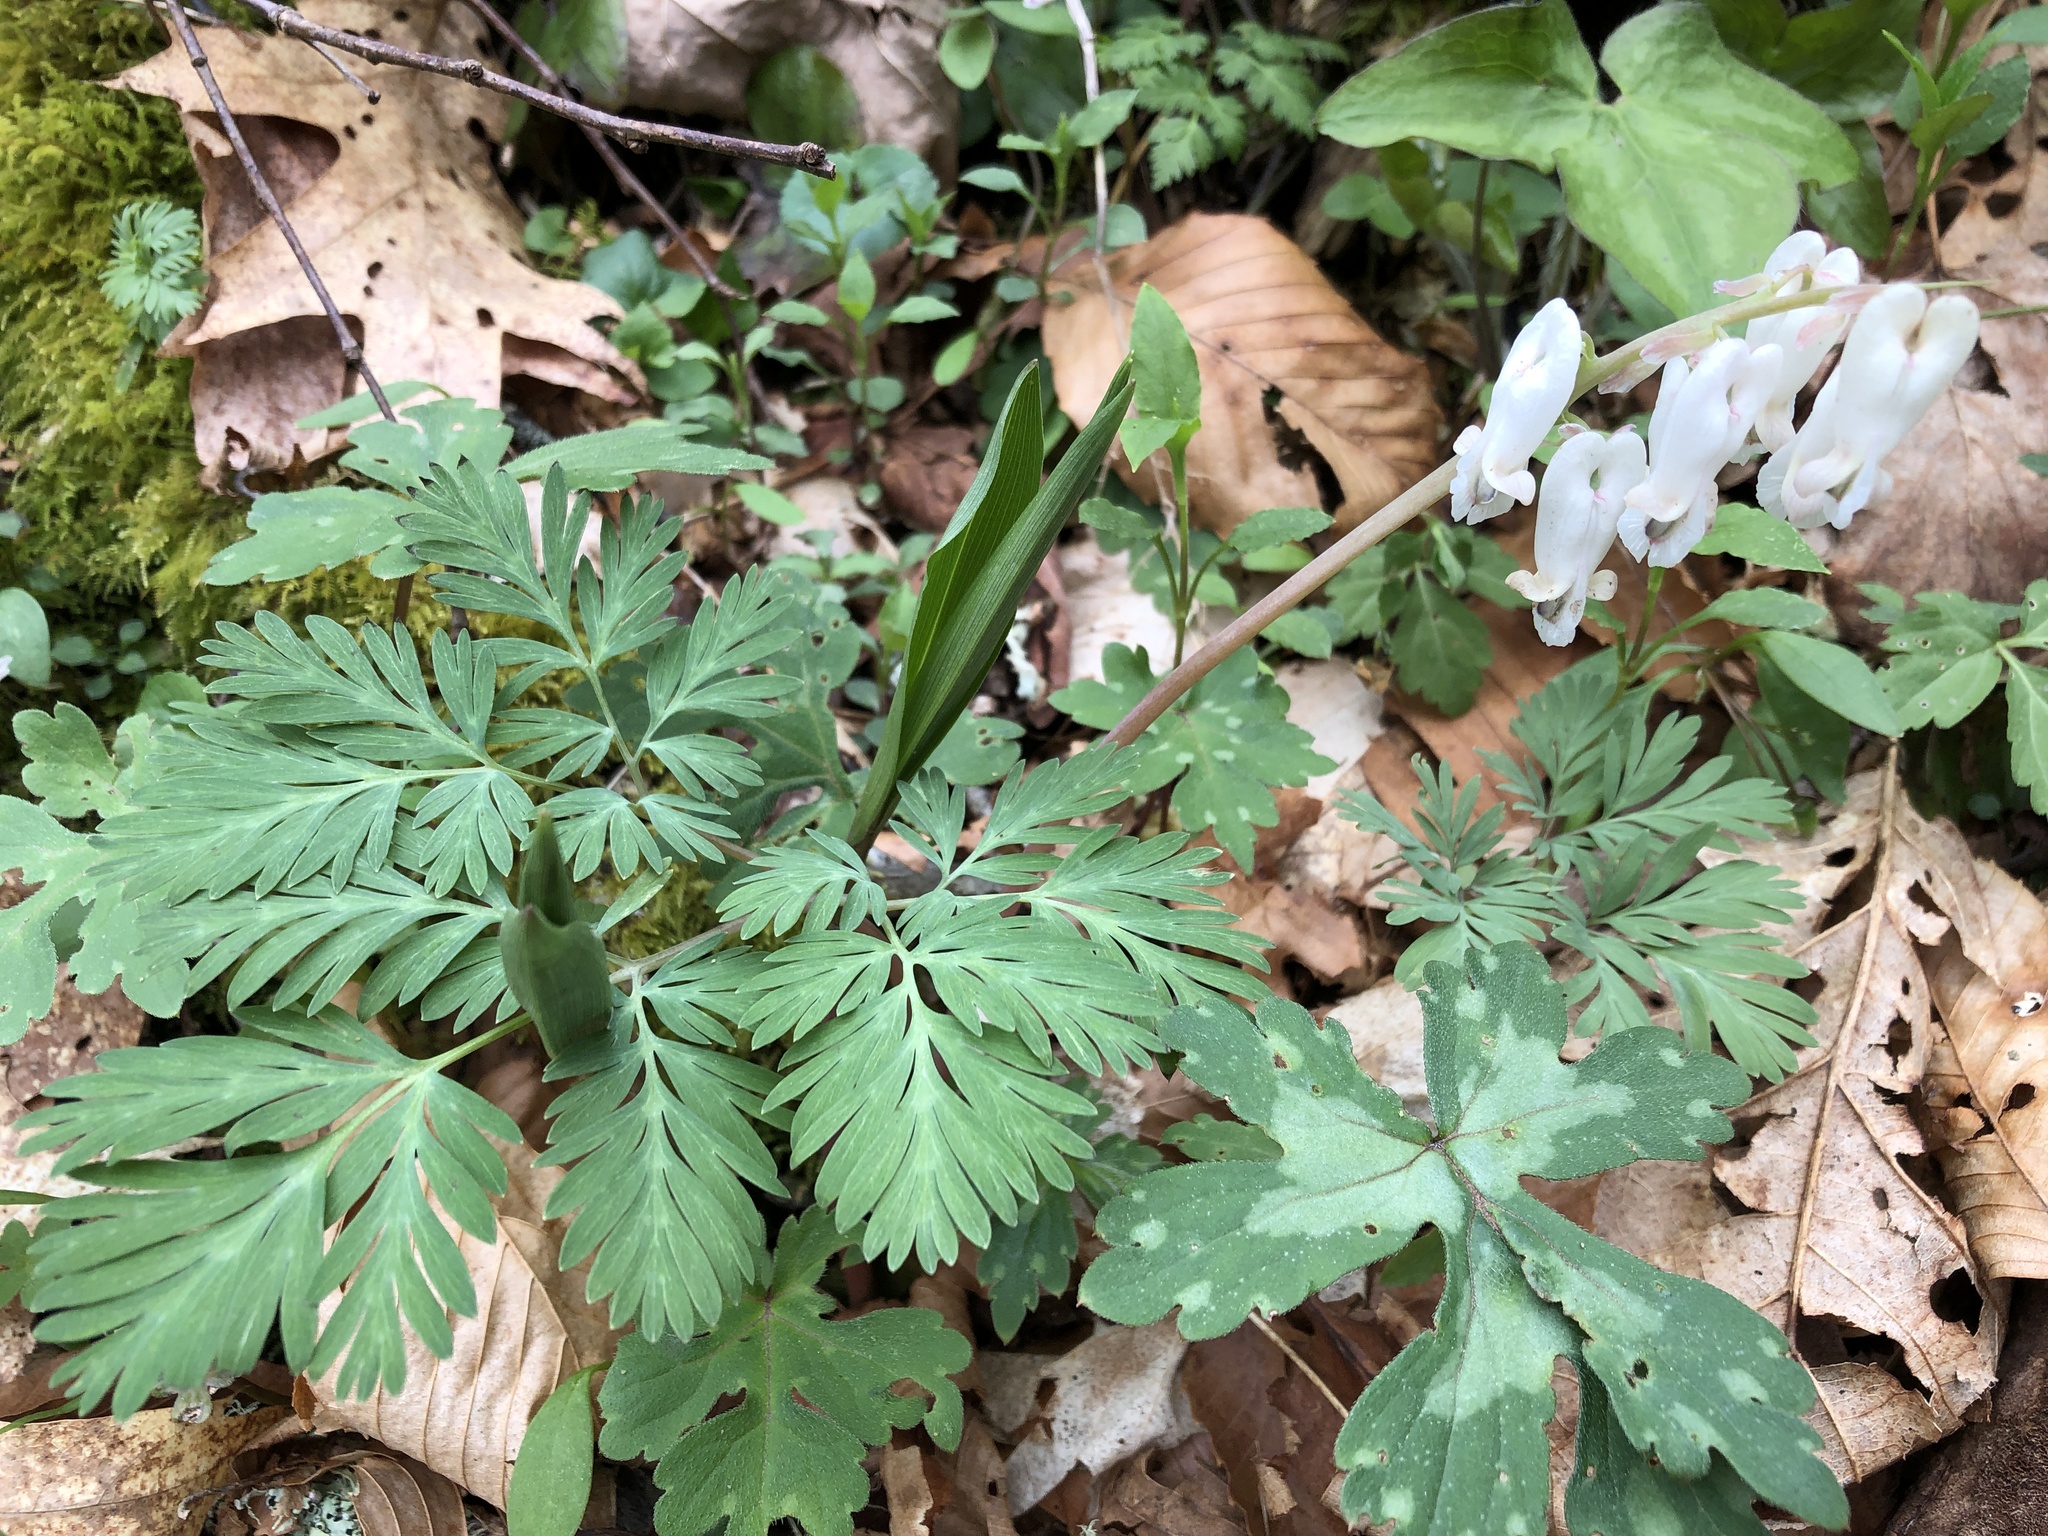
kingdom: Plantae
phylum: Tracheophyta
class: Magnoliopsida
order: Ranunculales
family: Papaveraceae
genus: Dicentra
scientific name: Dicentra canadensis
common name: Squirrel-corn
